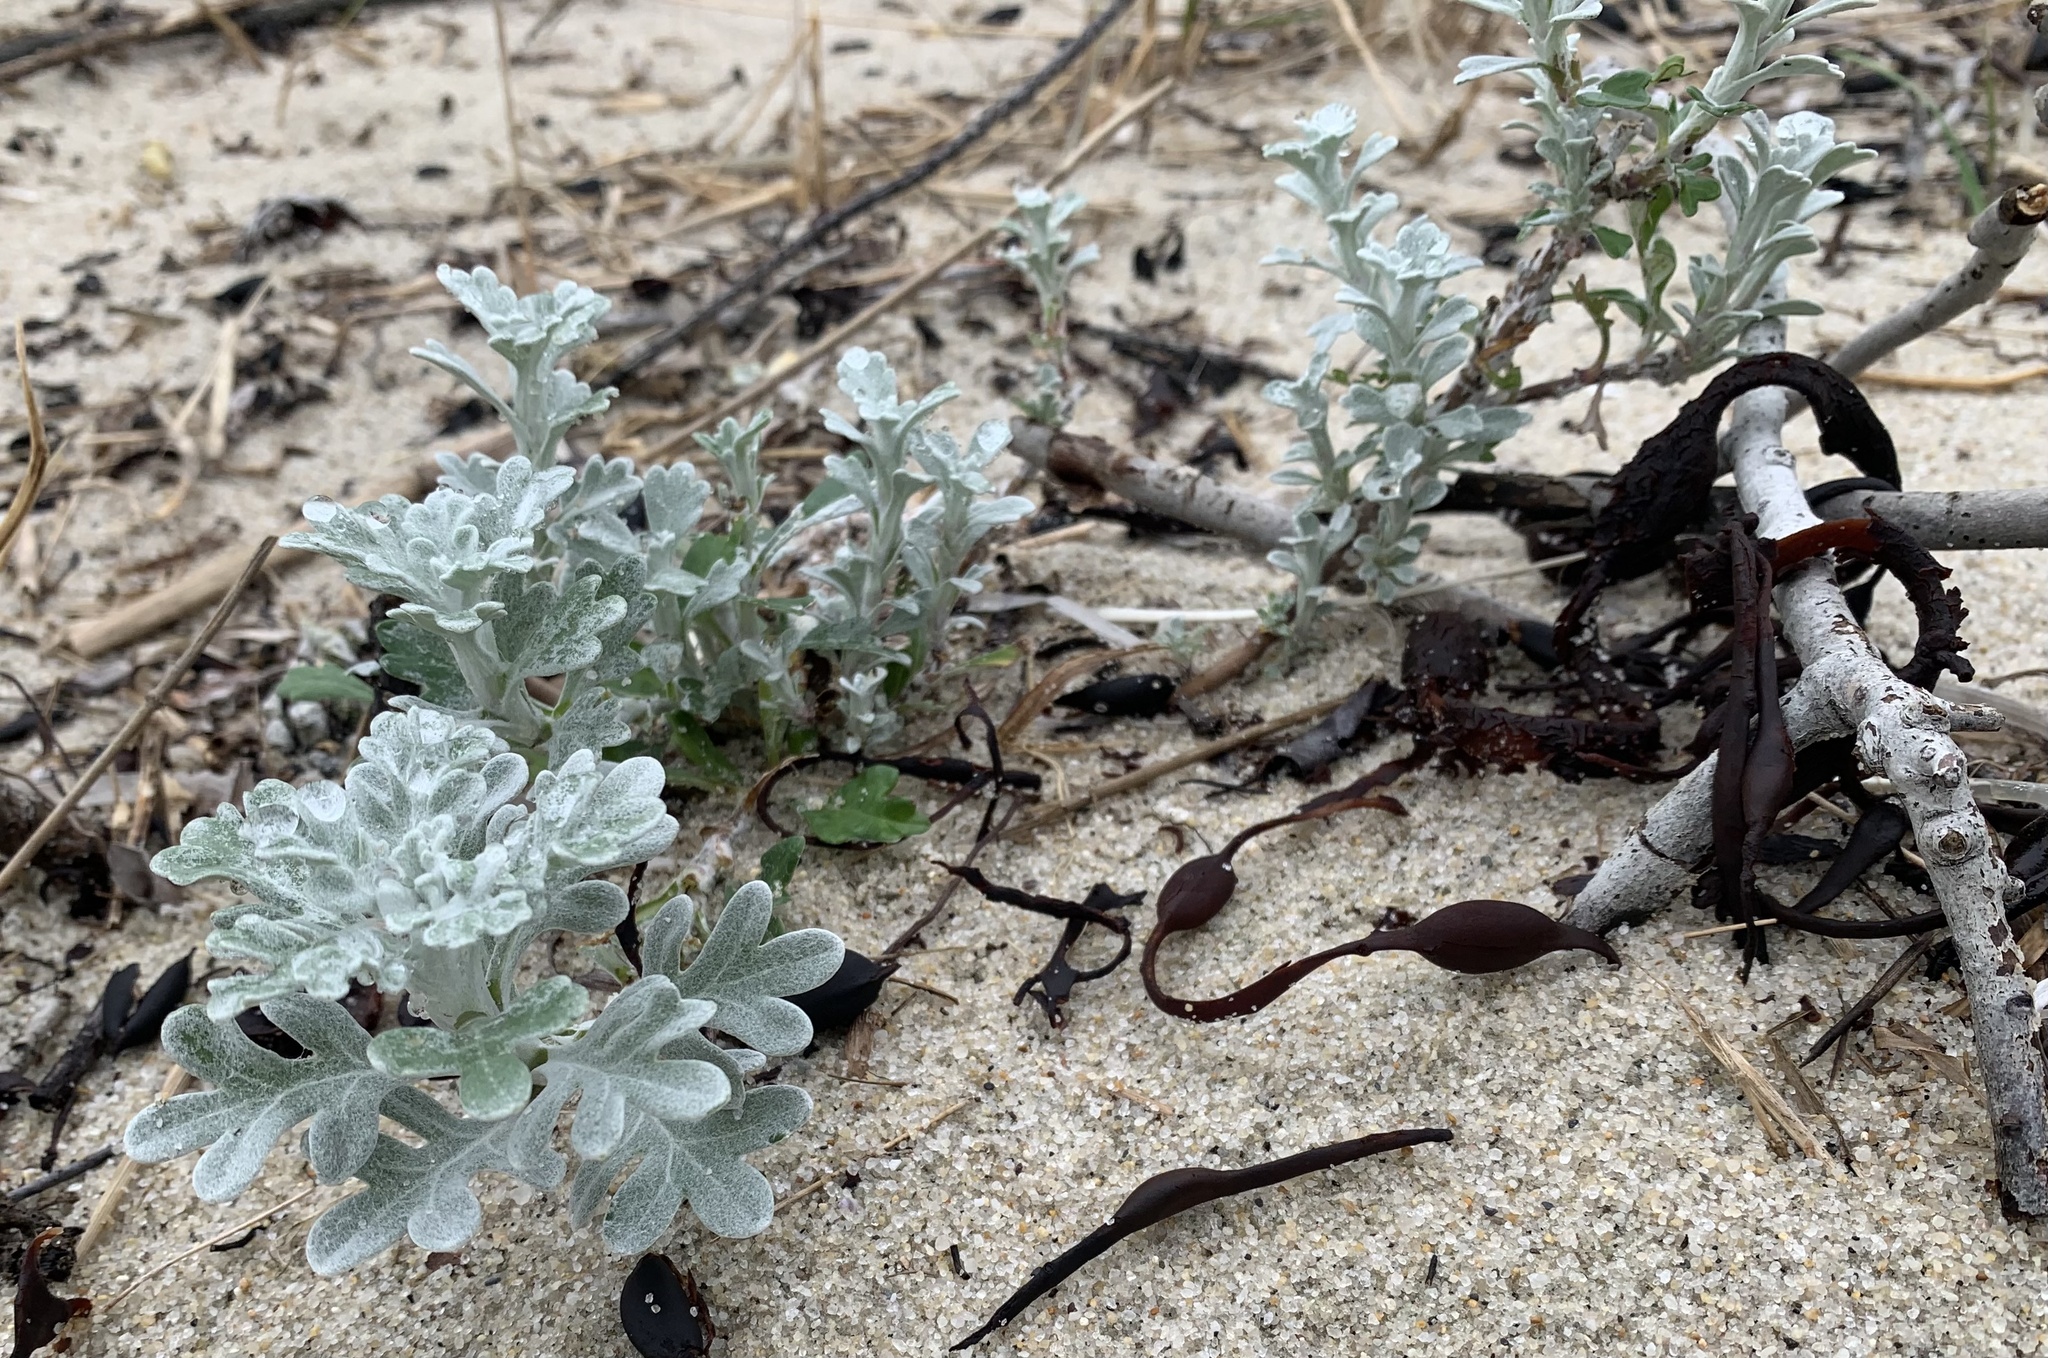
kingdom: Plantae
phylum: Tracheophyta
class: Magnoliopsida
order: Asterales
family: Asteraceae
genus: Artemisia
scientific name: Artemisia stelleriana
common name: Beach wormwood
